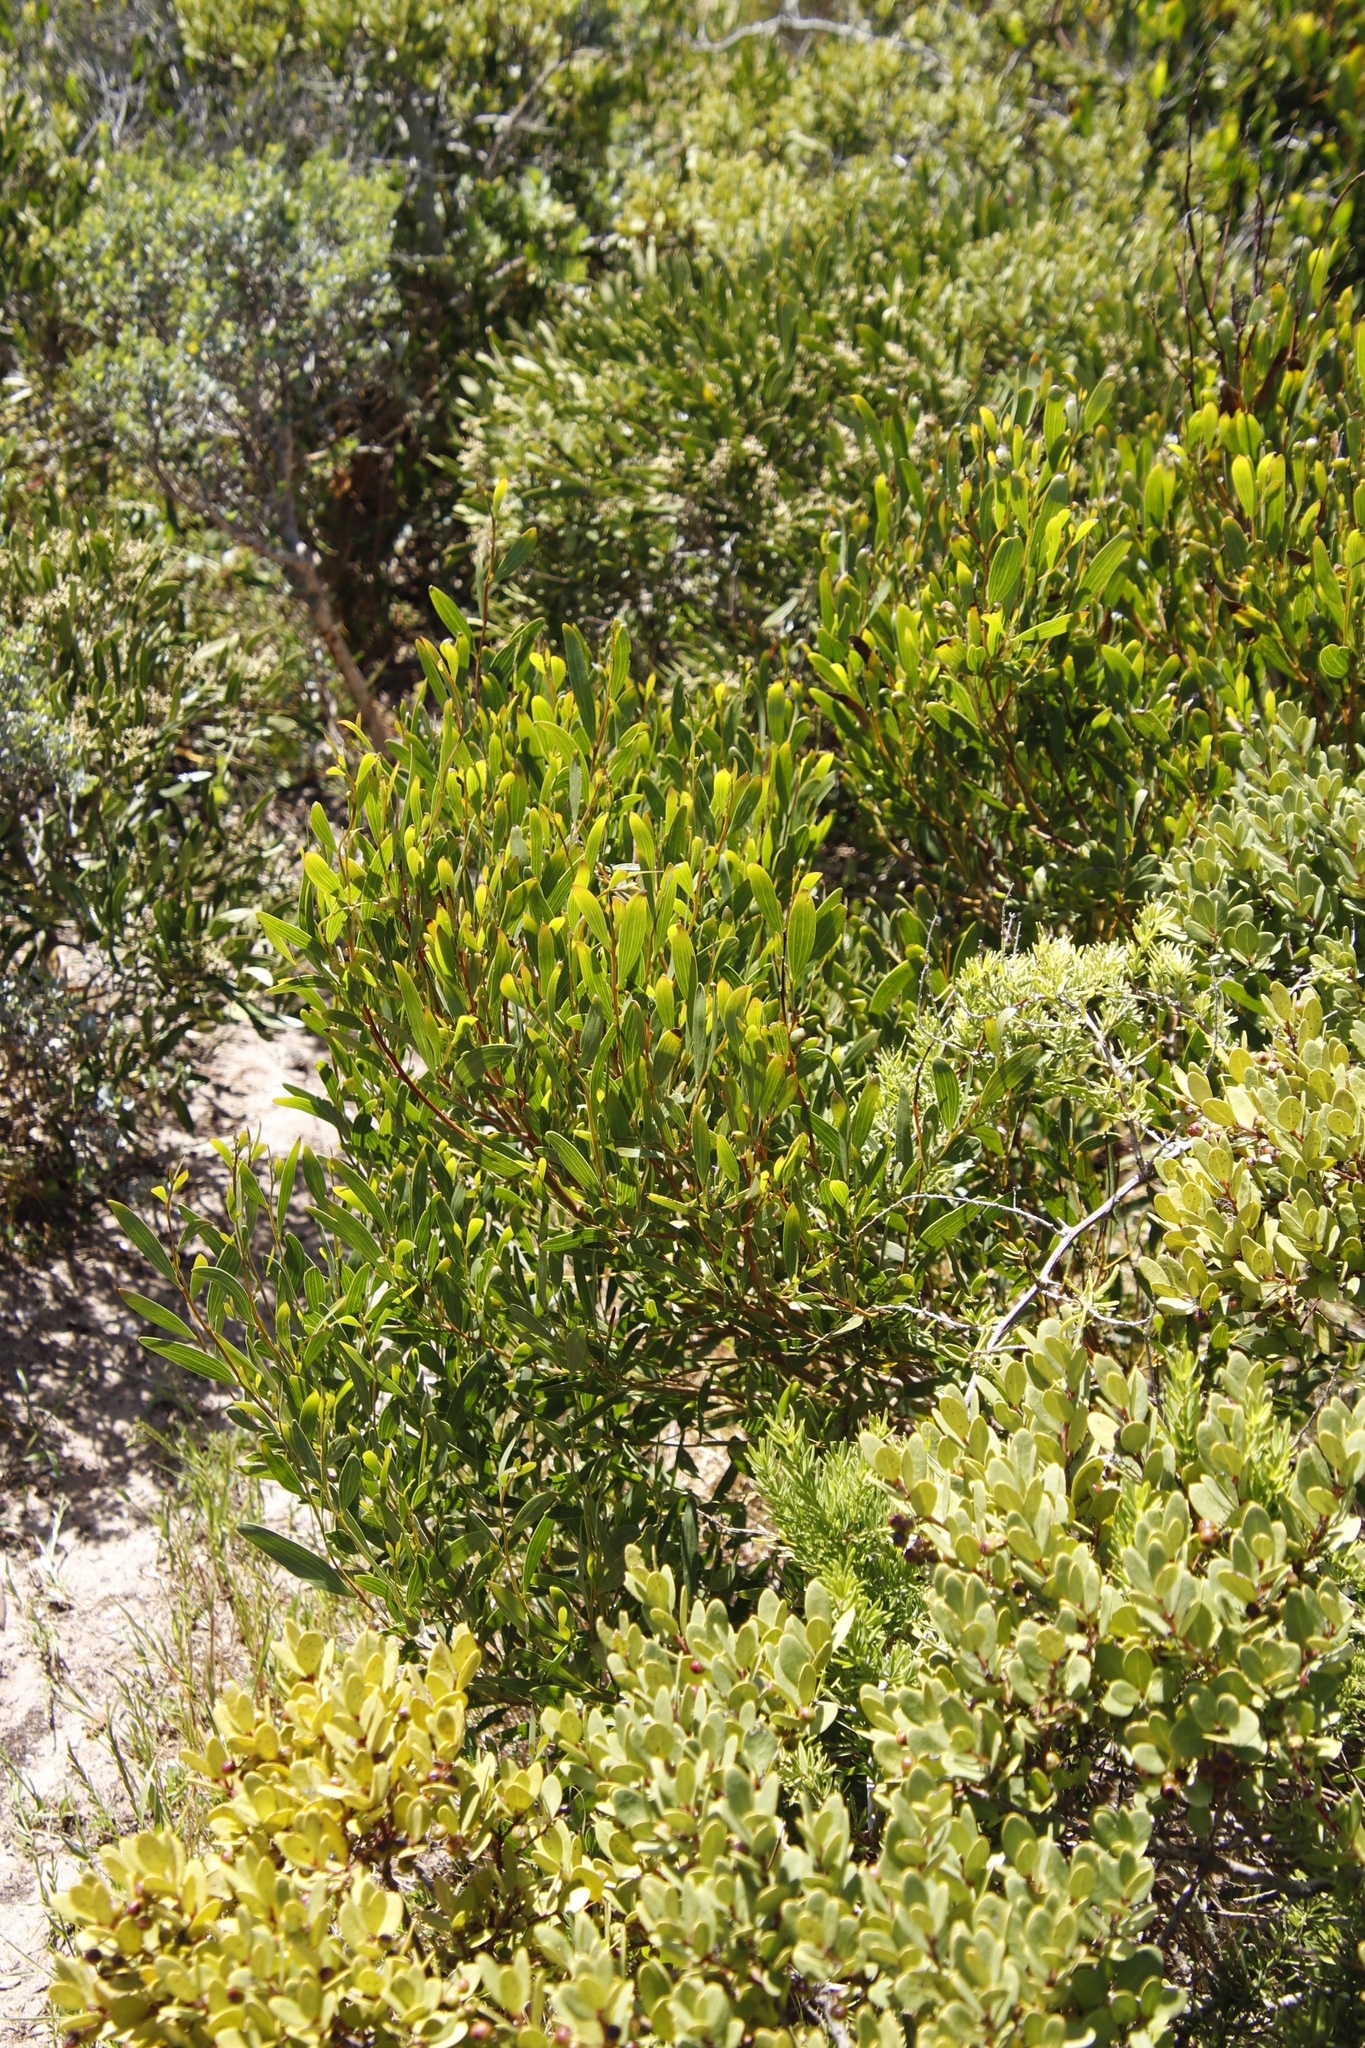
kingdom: Plantae
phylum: Tracheophyta
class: Magnoliopsida
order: Fabales
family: Fabaceae
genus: Acacia
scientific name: Acacia cyclops
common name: Coastal wattle
